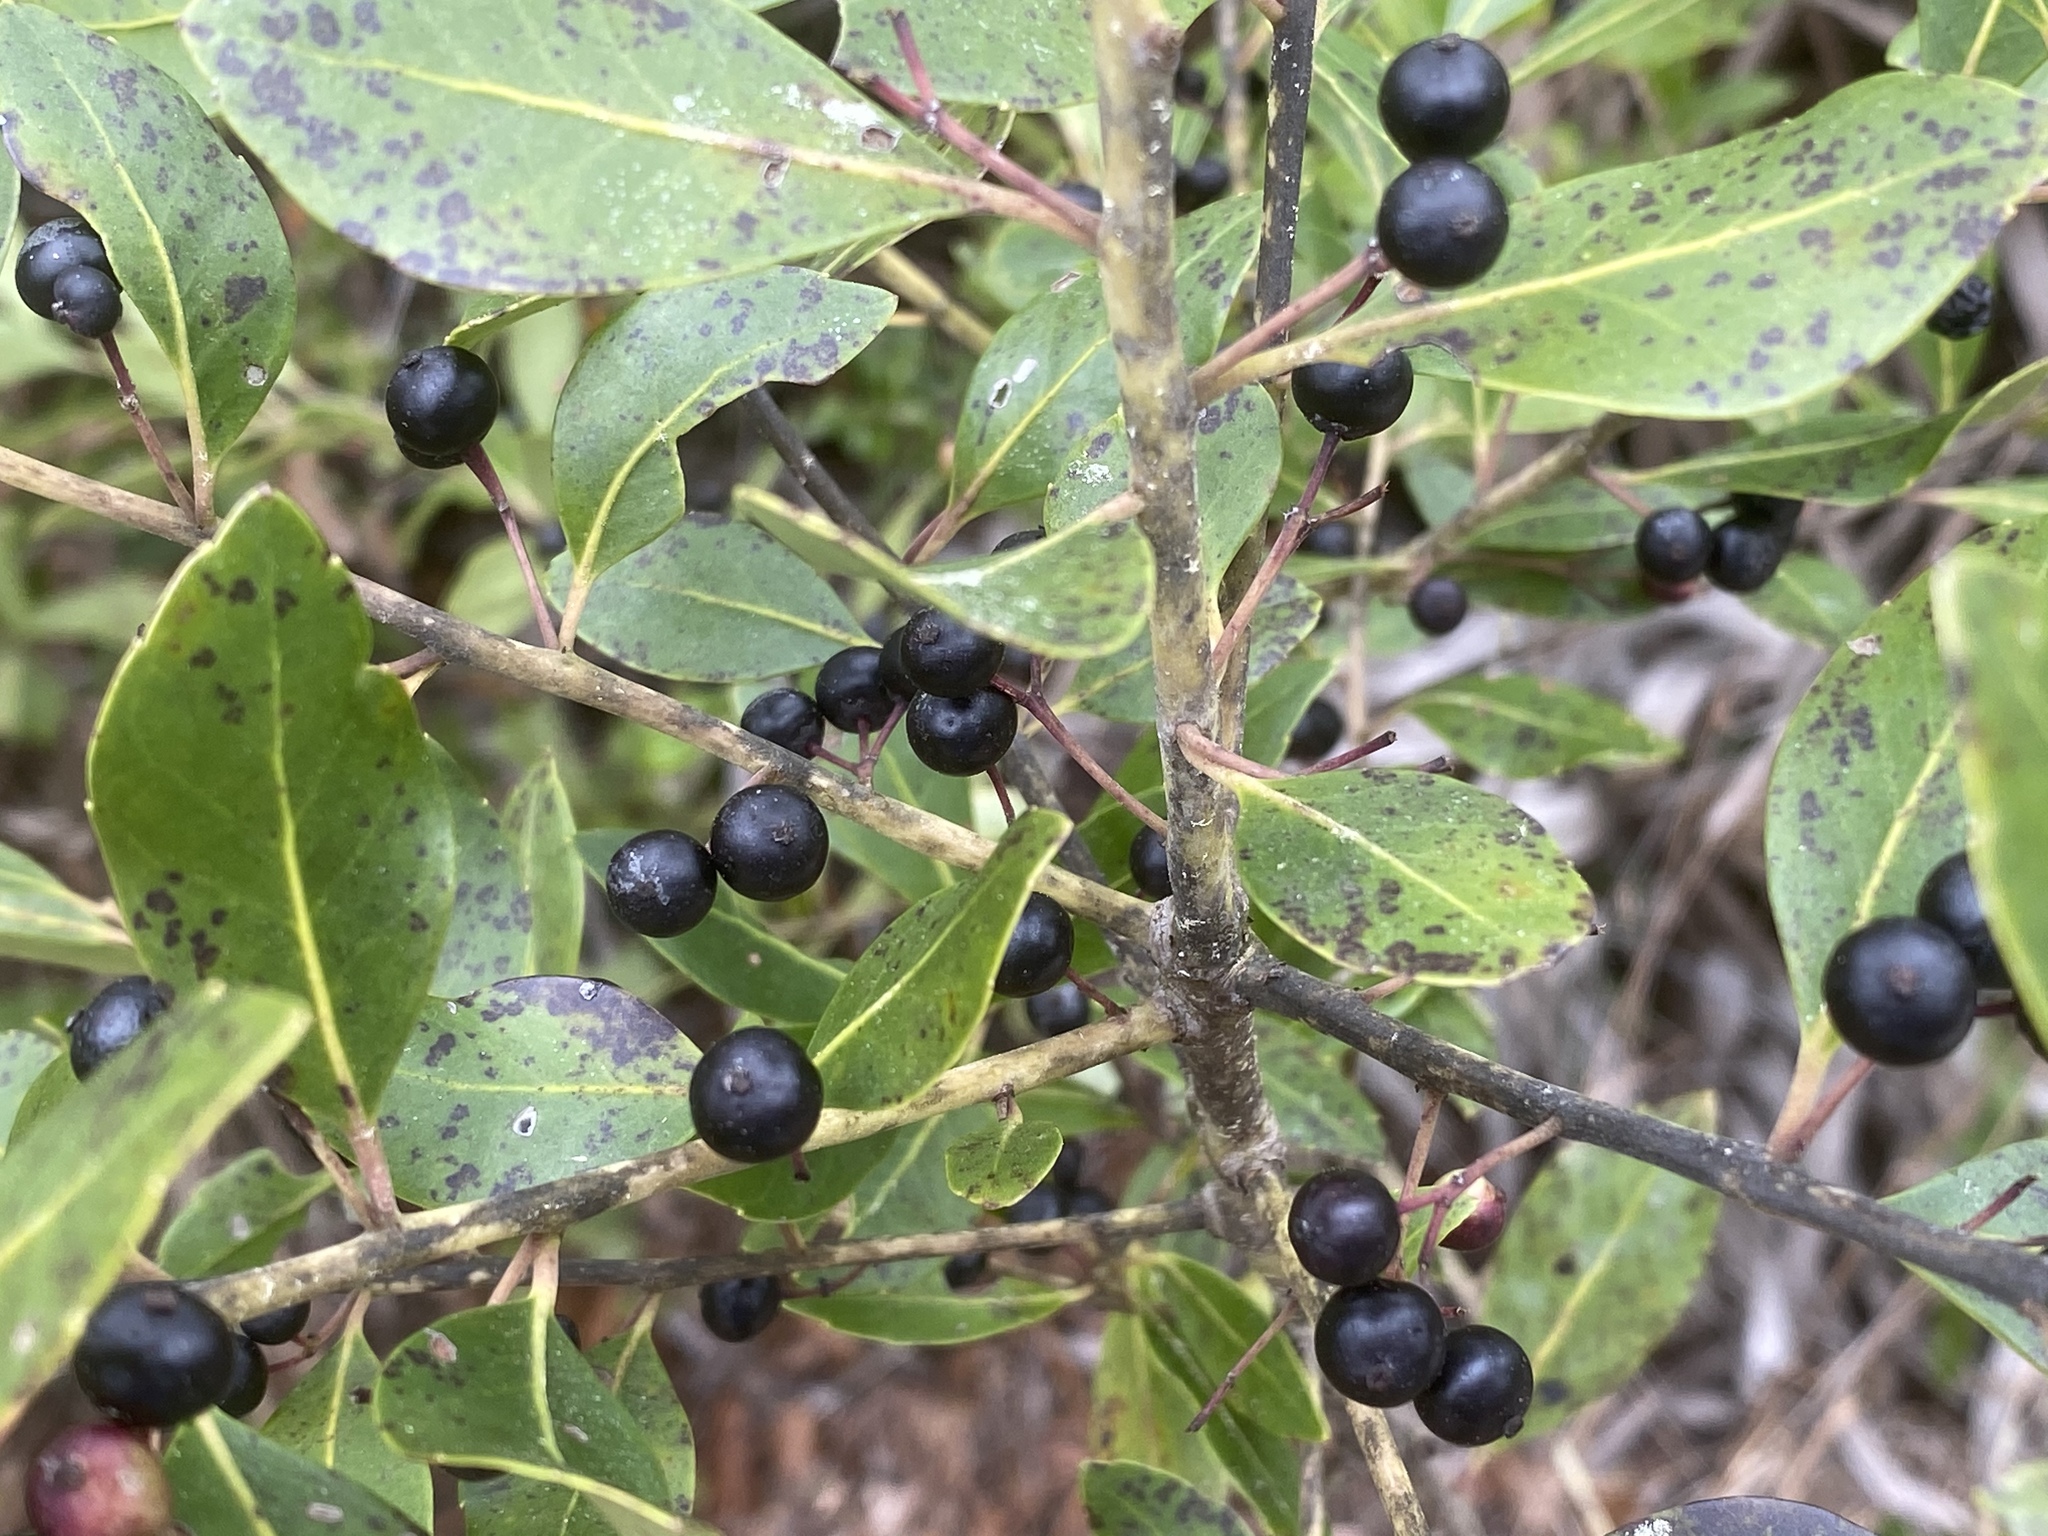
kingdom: Plantae
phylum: Tracheophyta
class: Magnoliopsida
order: Aquifoliales
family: Aquifoliaceae
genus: Ilex
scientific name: Ilex glabra
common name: Bitter gallberry
